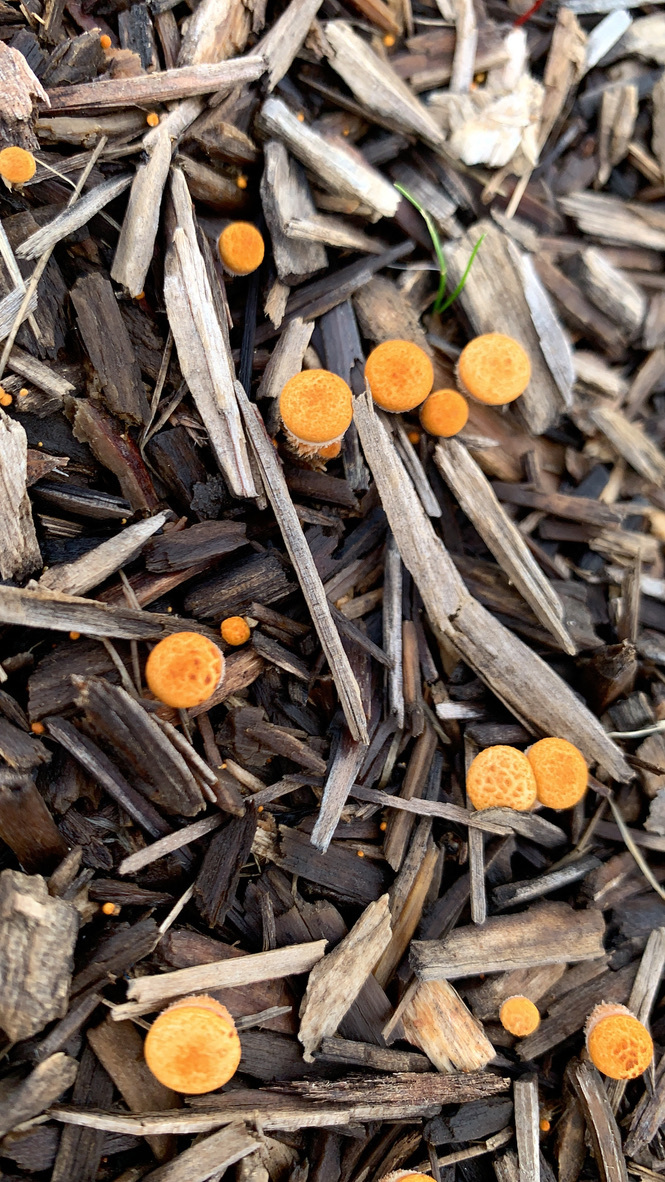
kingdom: Fungi
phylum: Basidiomycota
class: Agaricomycetes
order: Agaricales
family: Nidulariaceae
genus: Crucibulum
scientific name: Crucibulum laeve
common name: Common bird's nest
